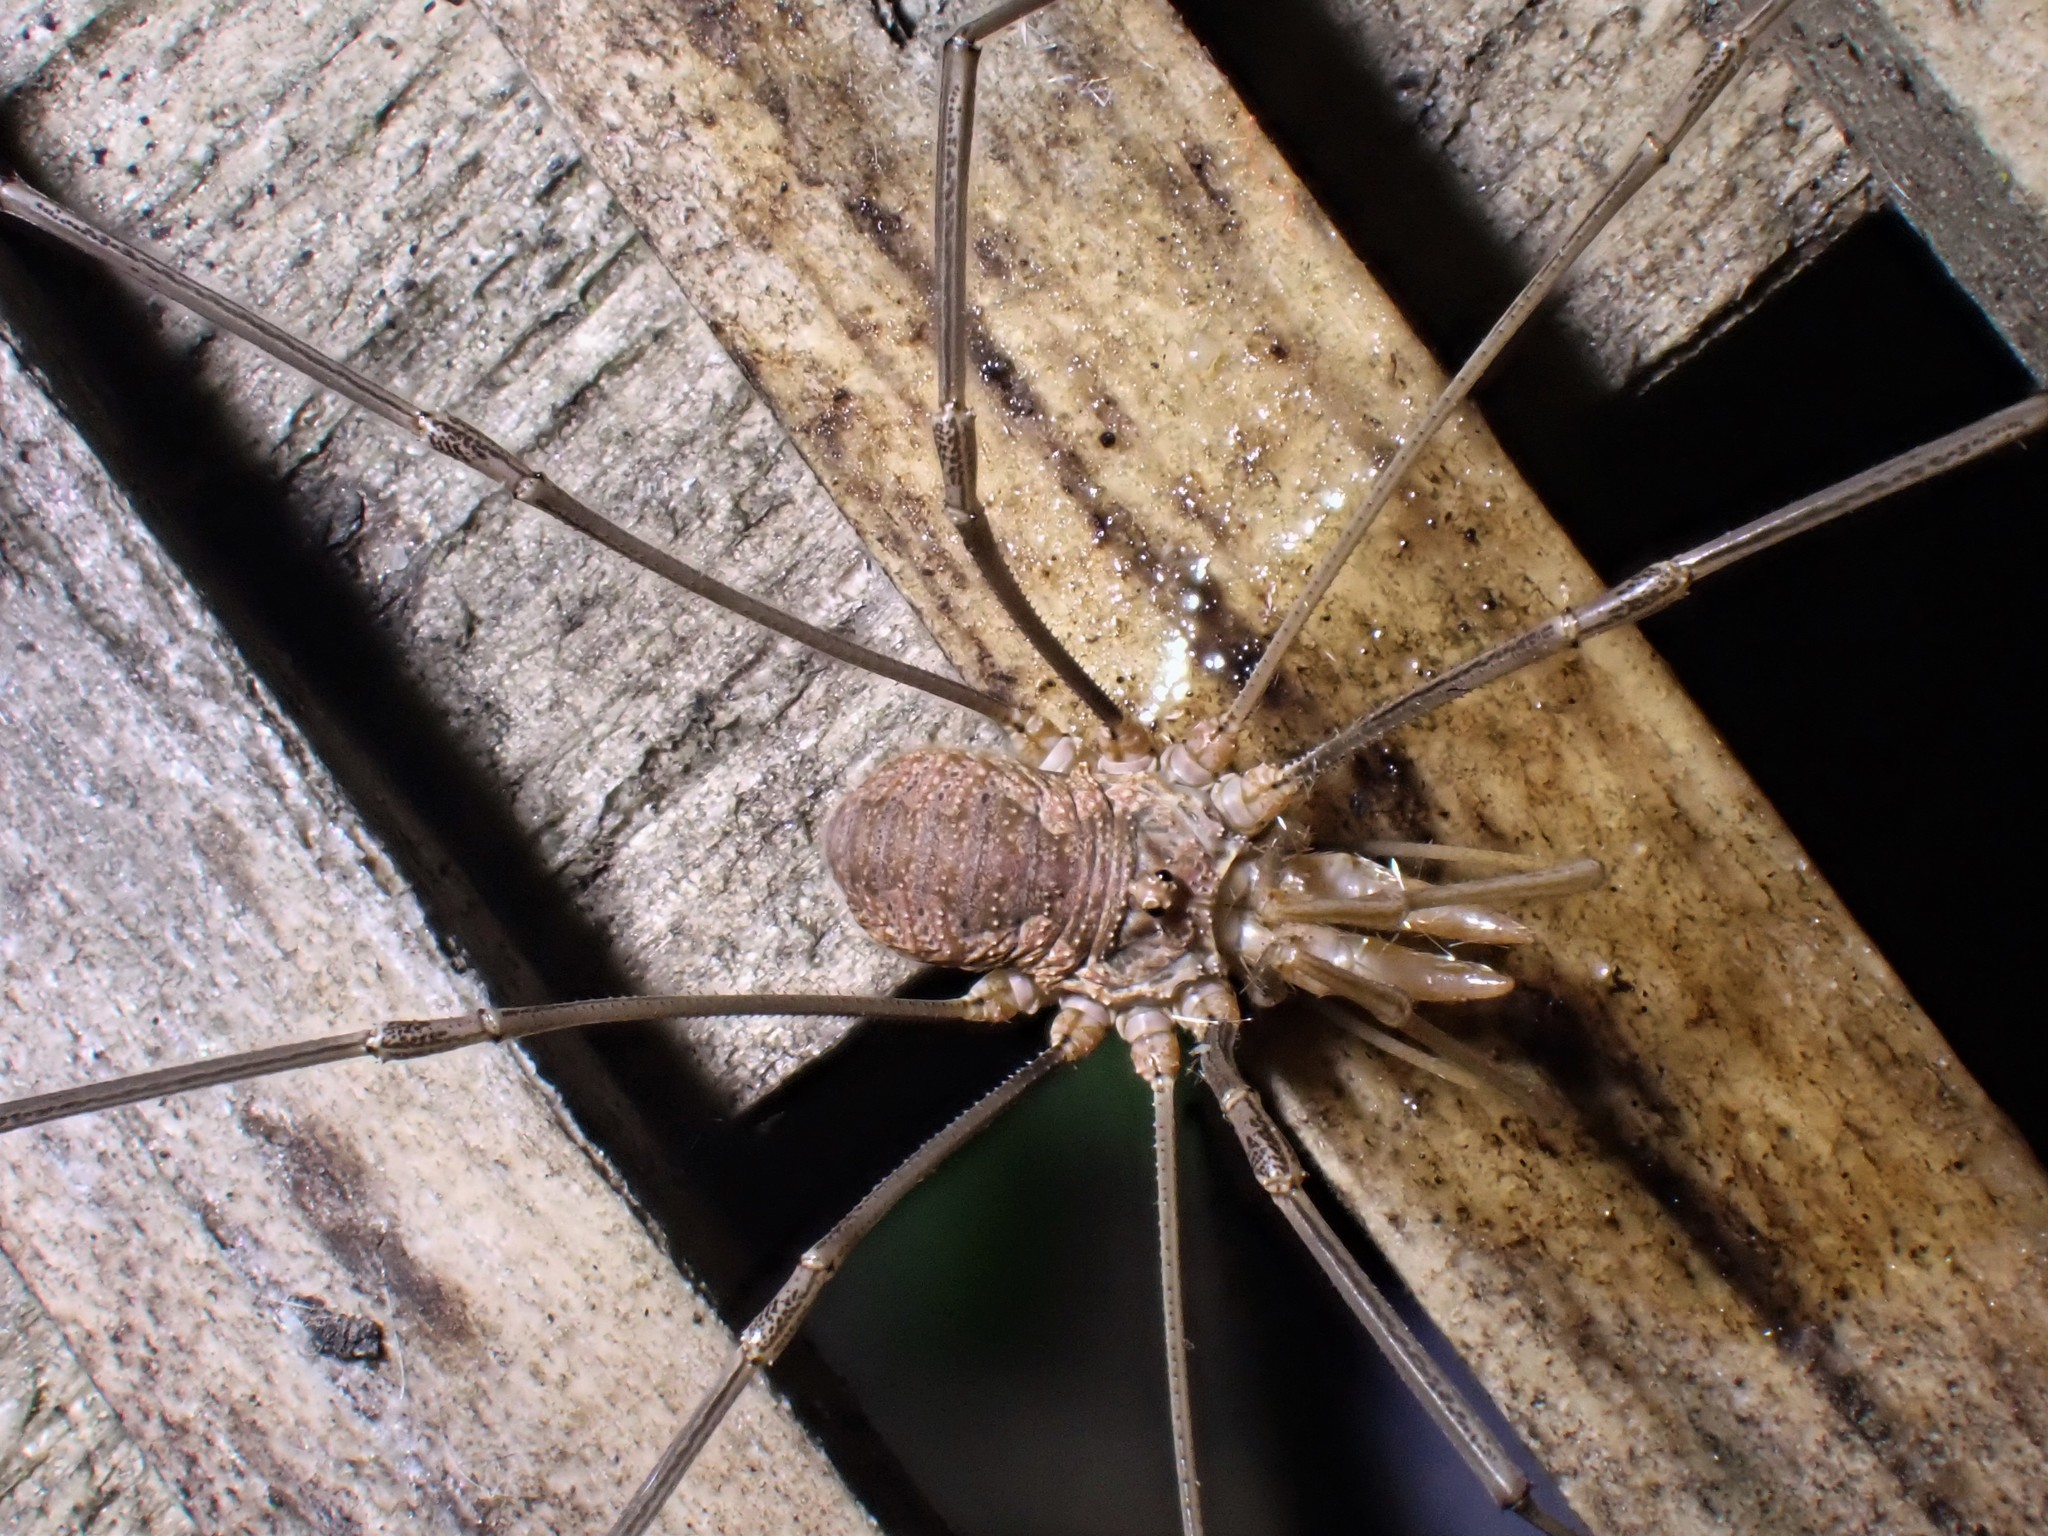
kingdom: Animalia
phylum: Arthropoda
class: Arachnida
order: Opiliones
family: Phalangiidae
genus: Phalangium
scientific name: Phalangium opilio
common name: Daddy longleg
